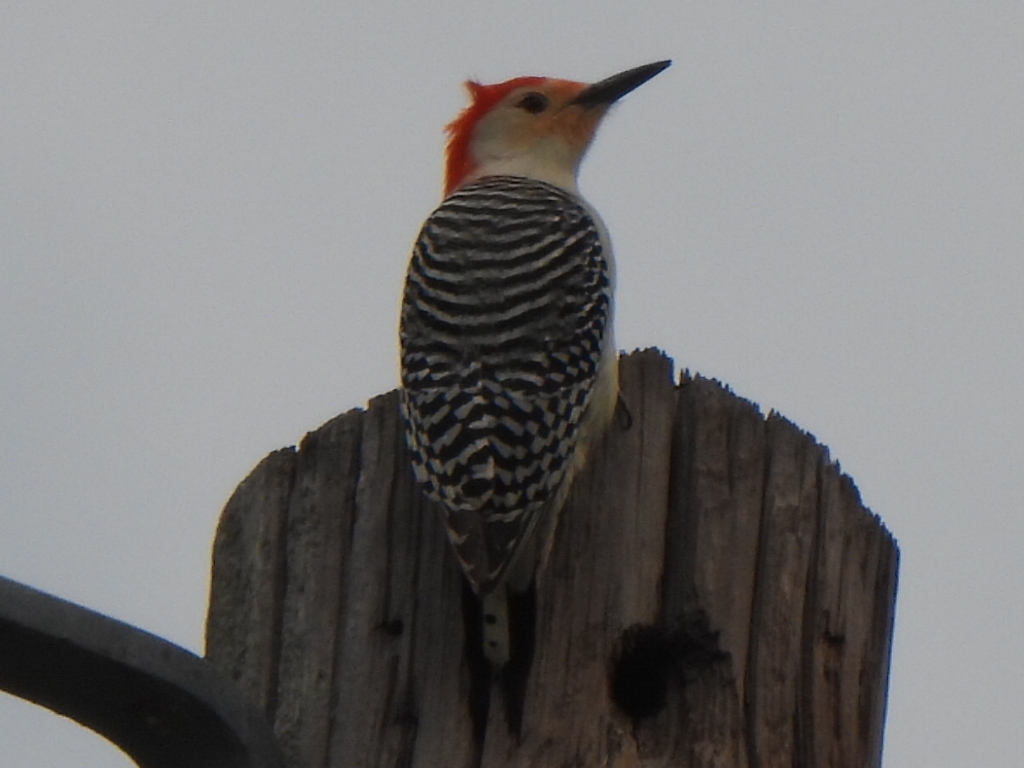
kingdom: Animalia
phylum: Chordata
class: Aves
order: Piciformes
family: Picidae
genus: Melanerpes
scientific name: Melanerpes carolinus
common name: Red-bellied woodpecker
